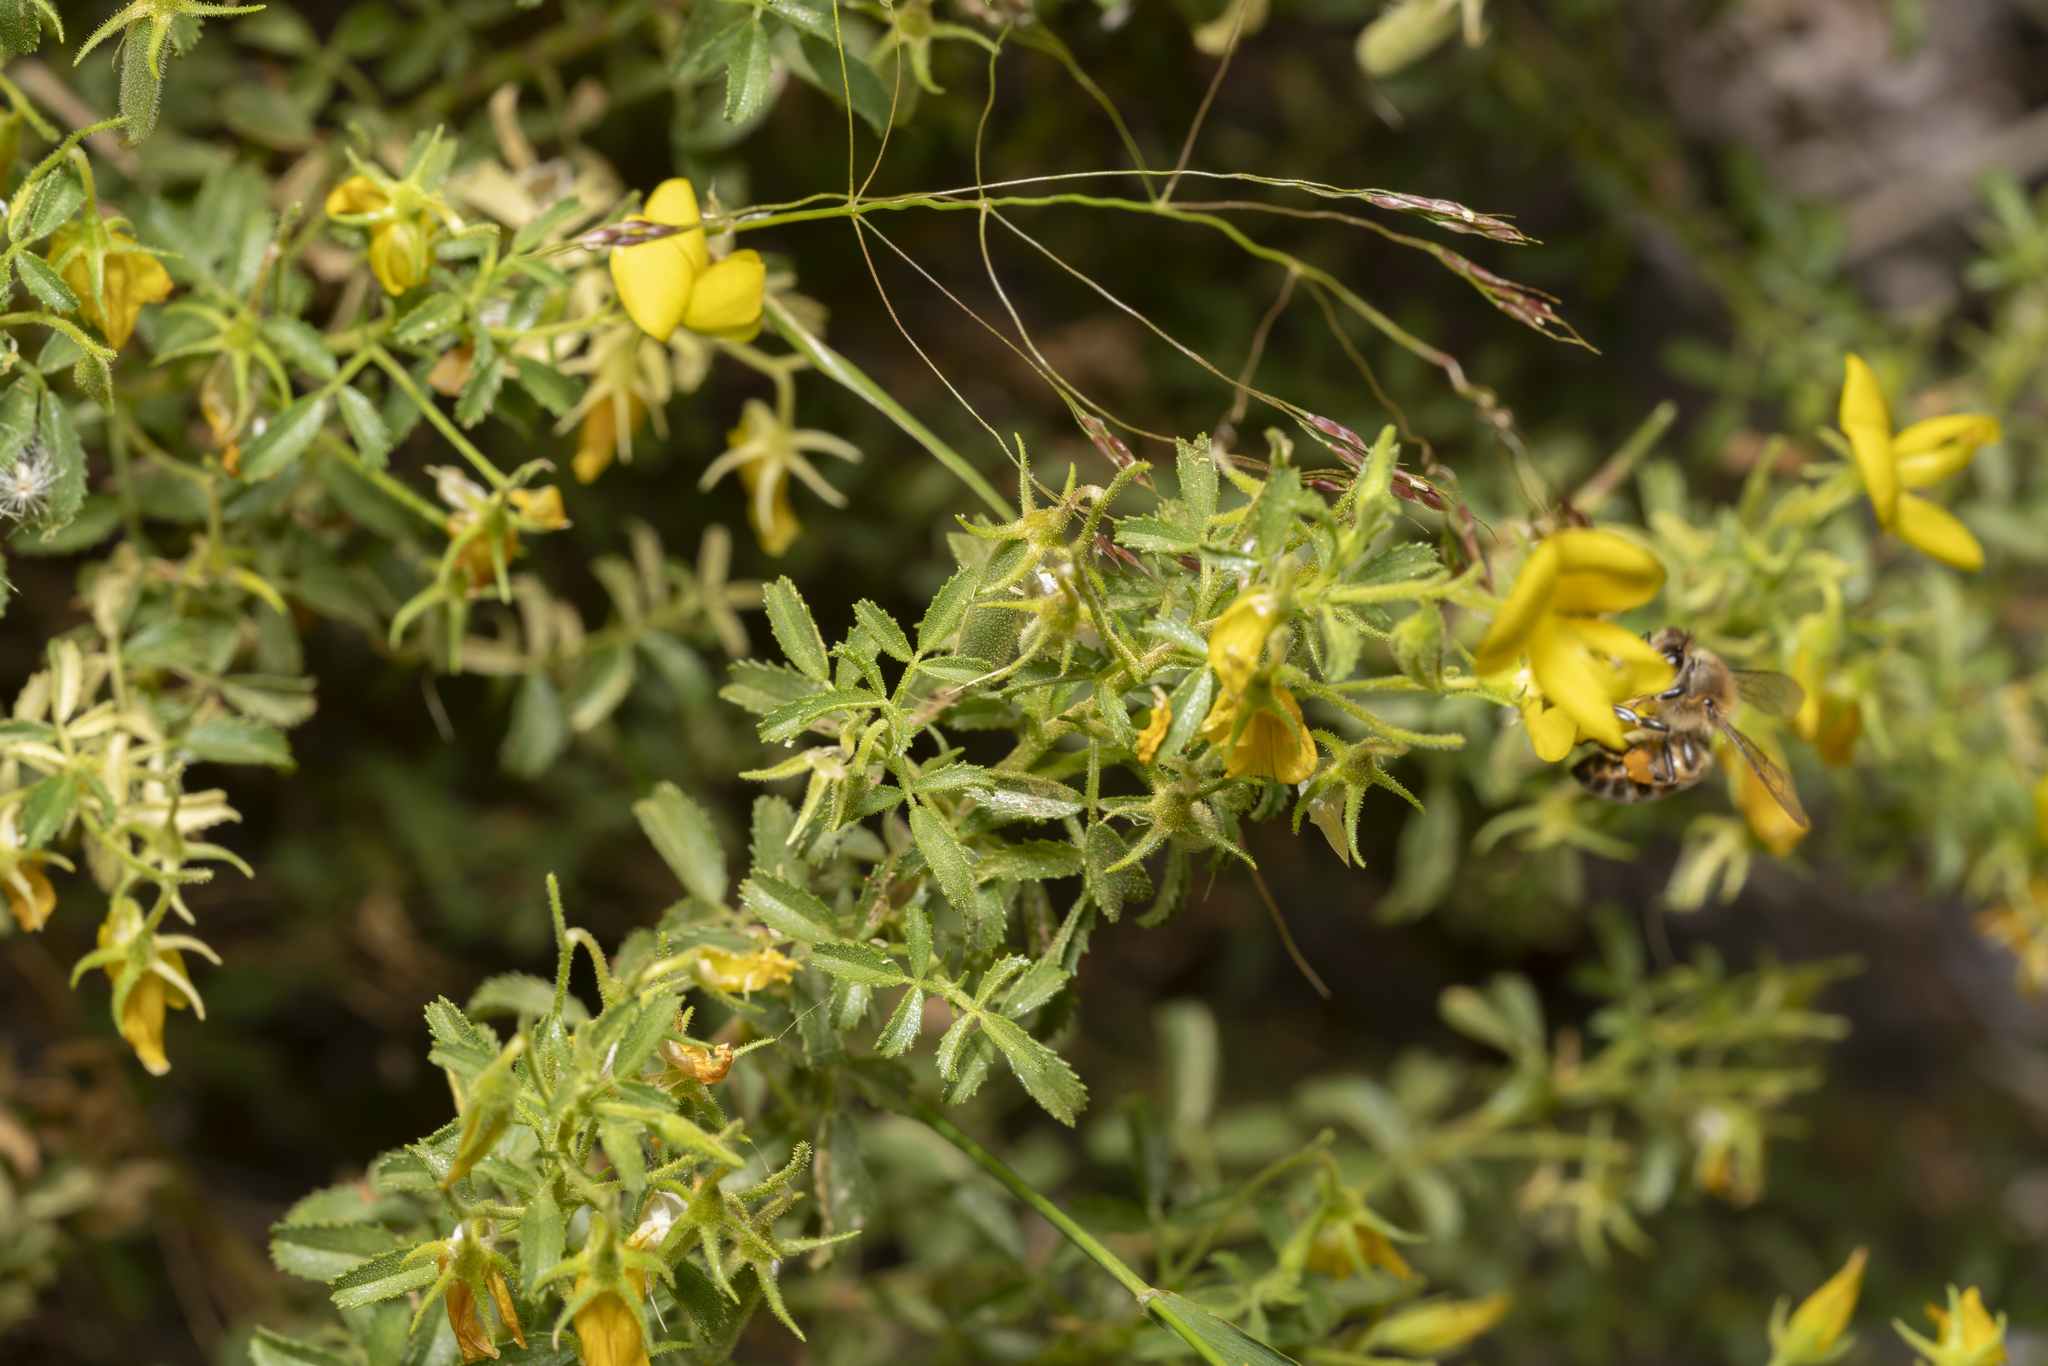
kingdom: Plantae
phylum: Tracheophyta
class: Magnoliopsida
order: Fabales
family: Fabaceae
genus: Ononis
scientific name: Ononis ramosissima
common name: Bush restharrow
